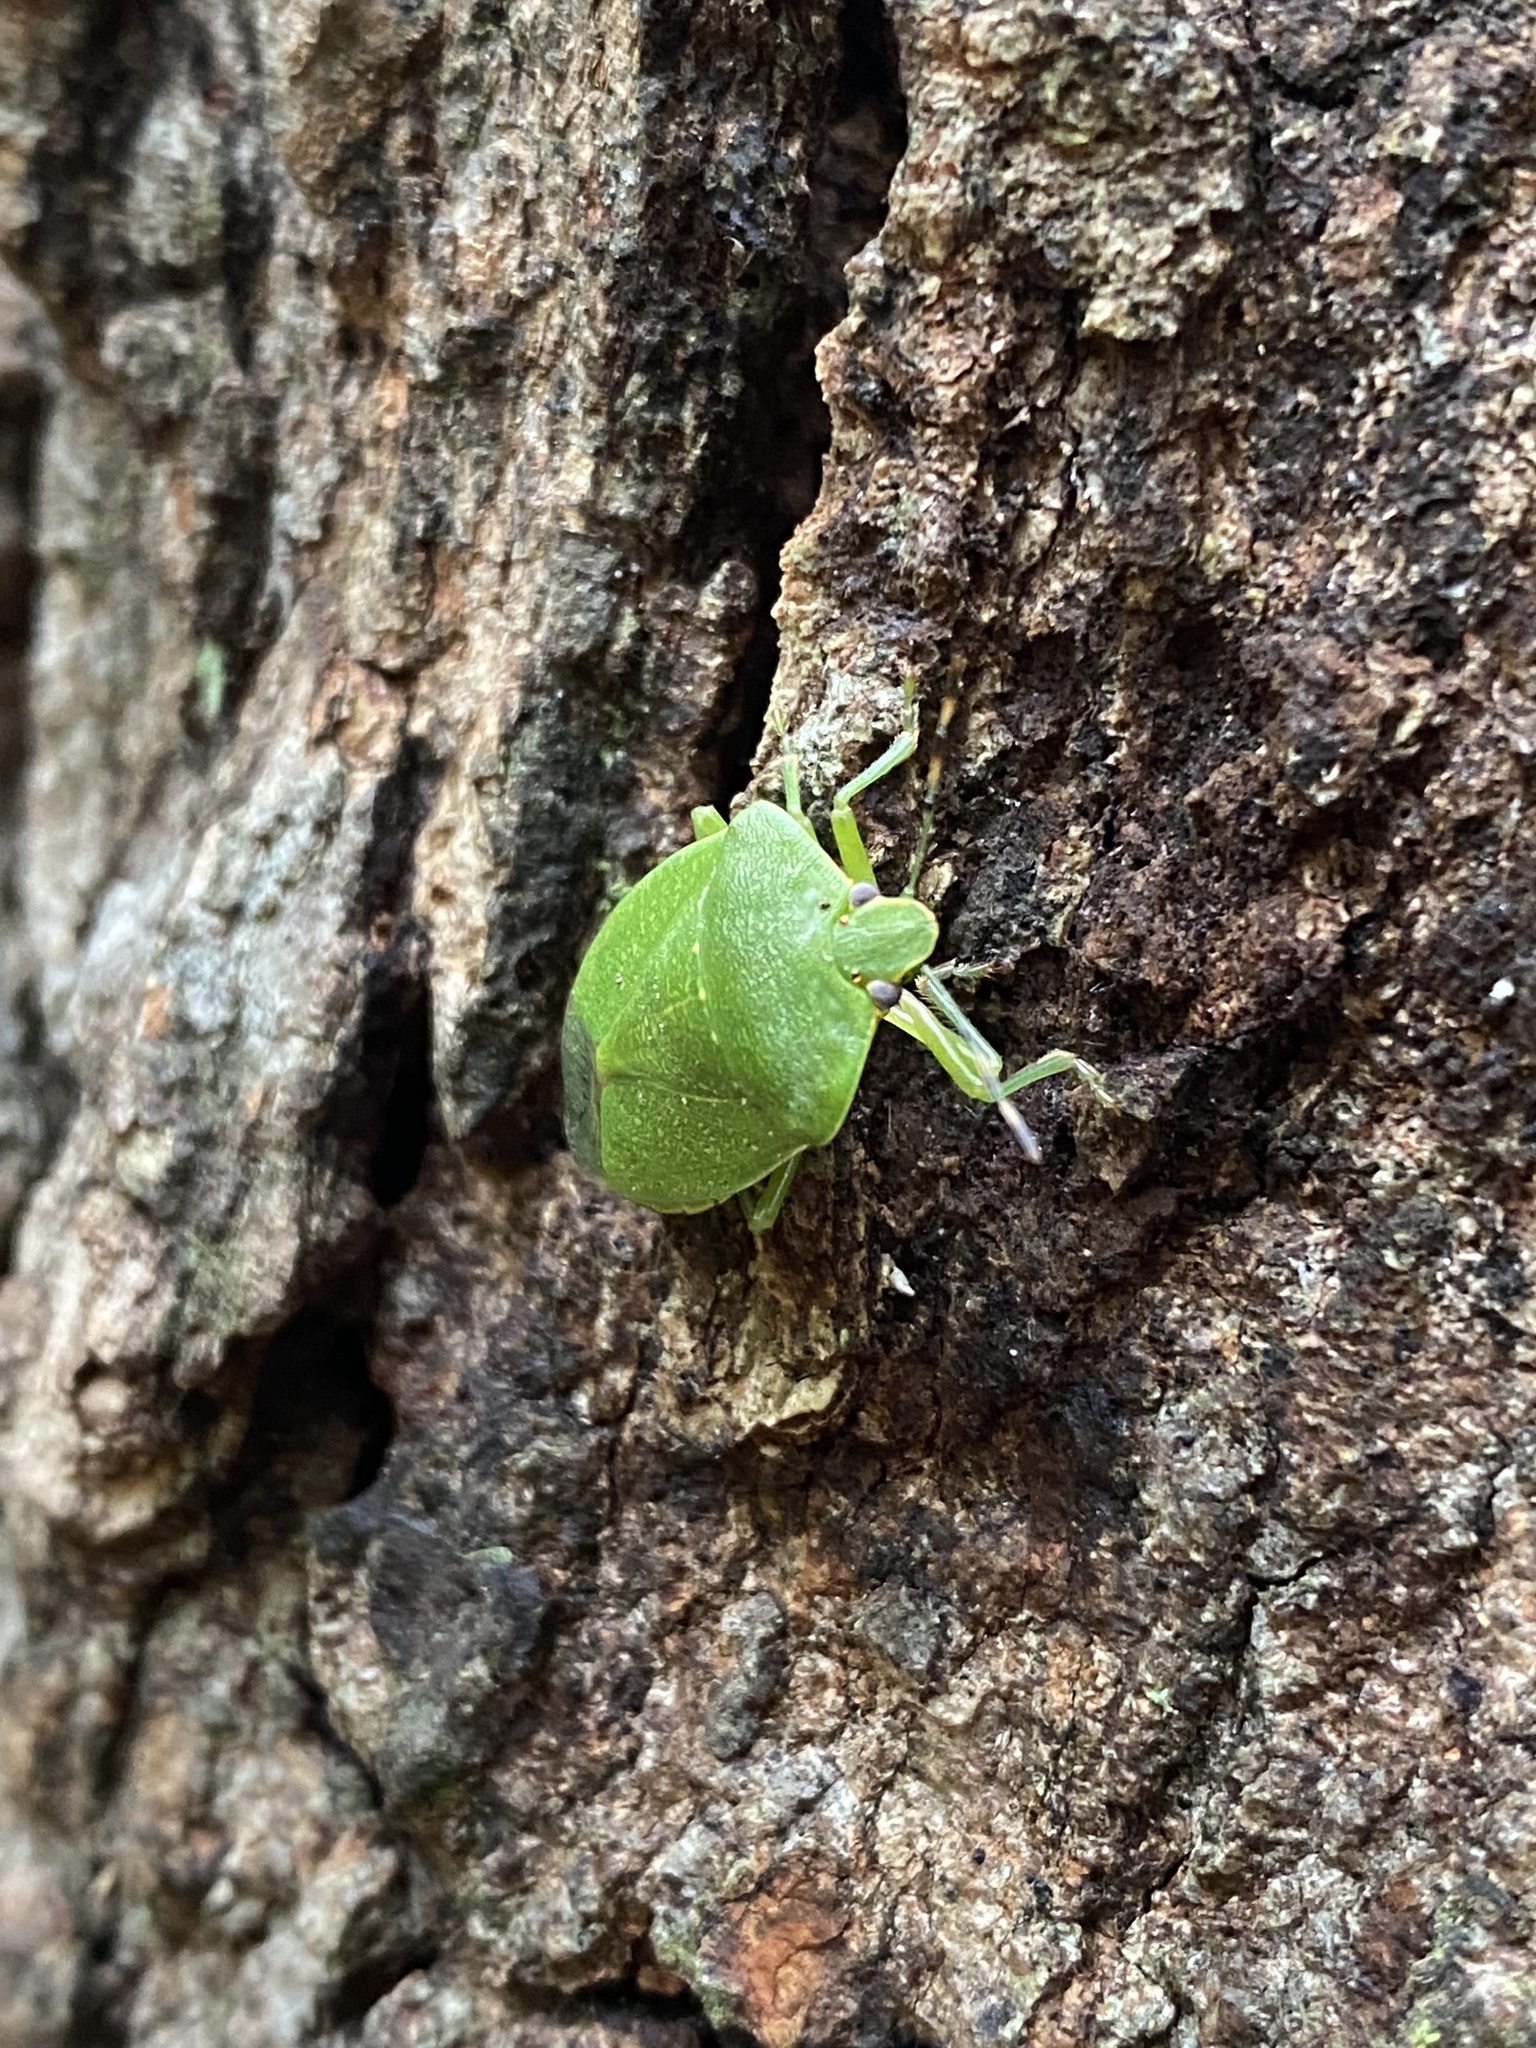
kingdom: Animalia
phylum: Arthropoda
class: Insecta
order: Hemiptera
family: Pentatomidae
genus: Chinavia
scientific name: Chinavia hilaris
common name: Green stink bug
